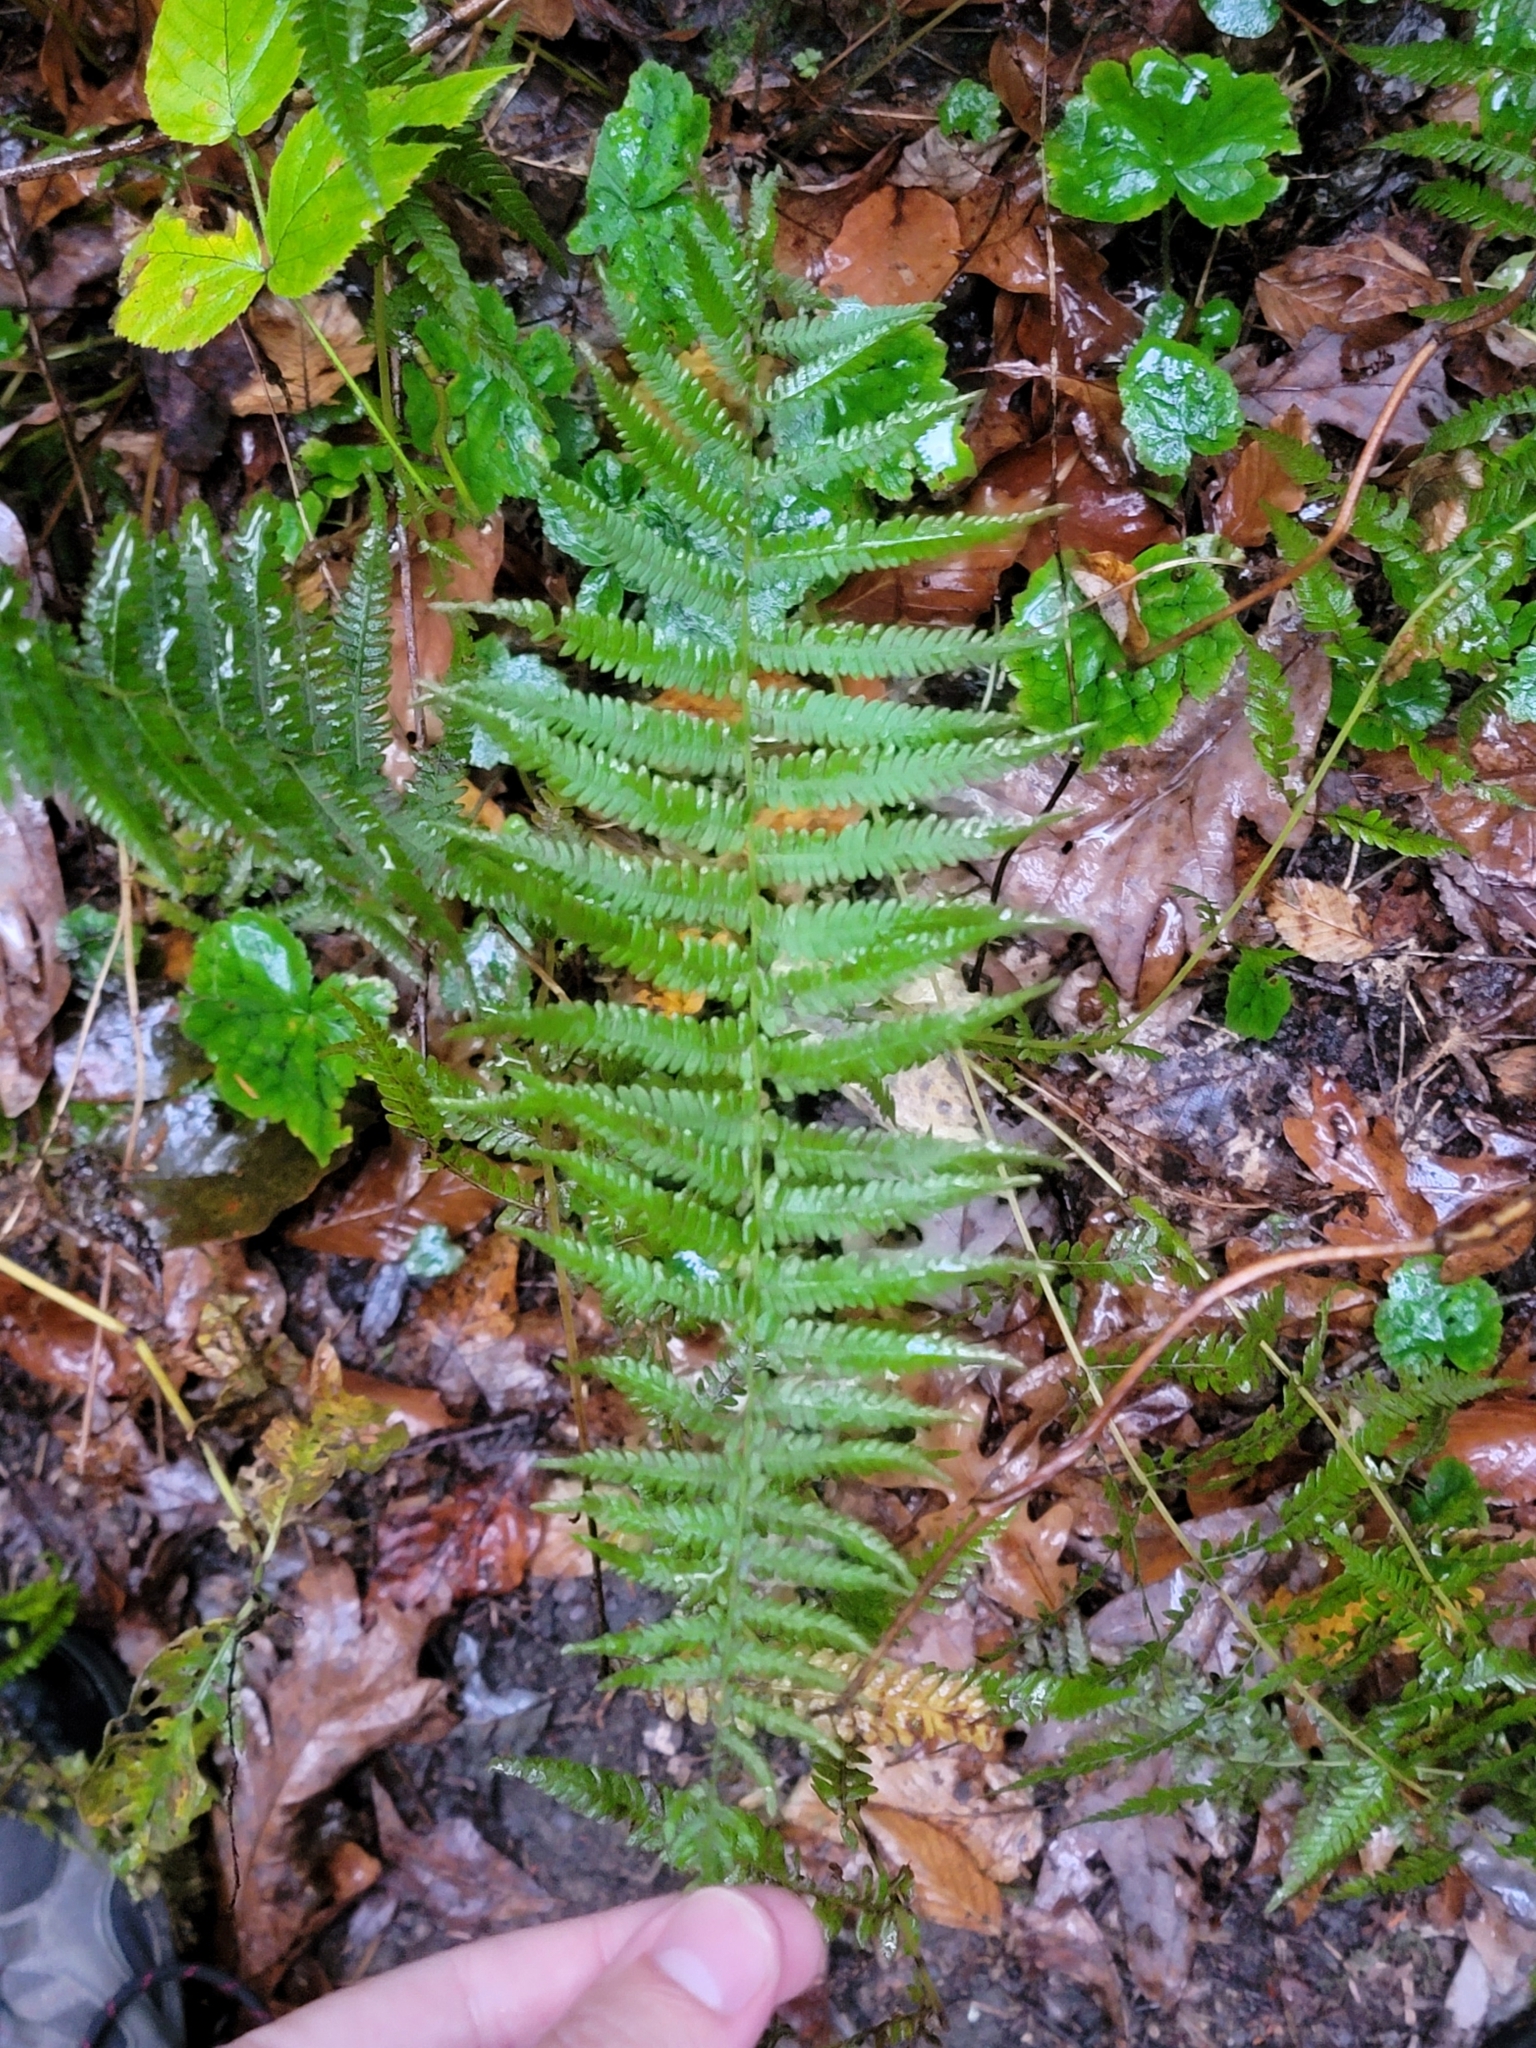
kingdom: Plantae
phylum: Tracheophyta
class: Polypodiopsida
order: Polypodiales
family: Thelypteridaceae
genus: Amauropelta
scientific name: Amauropelta noveboracensis
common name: New york fern
